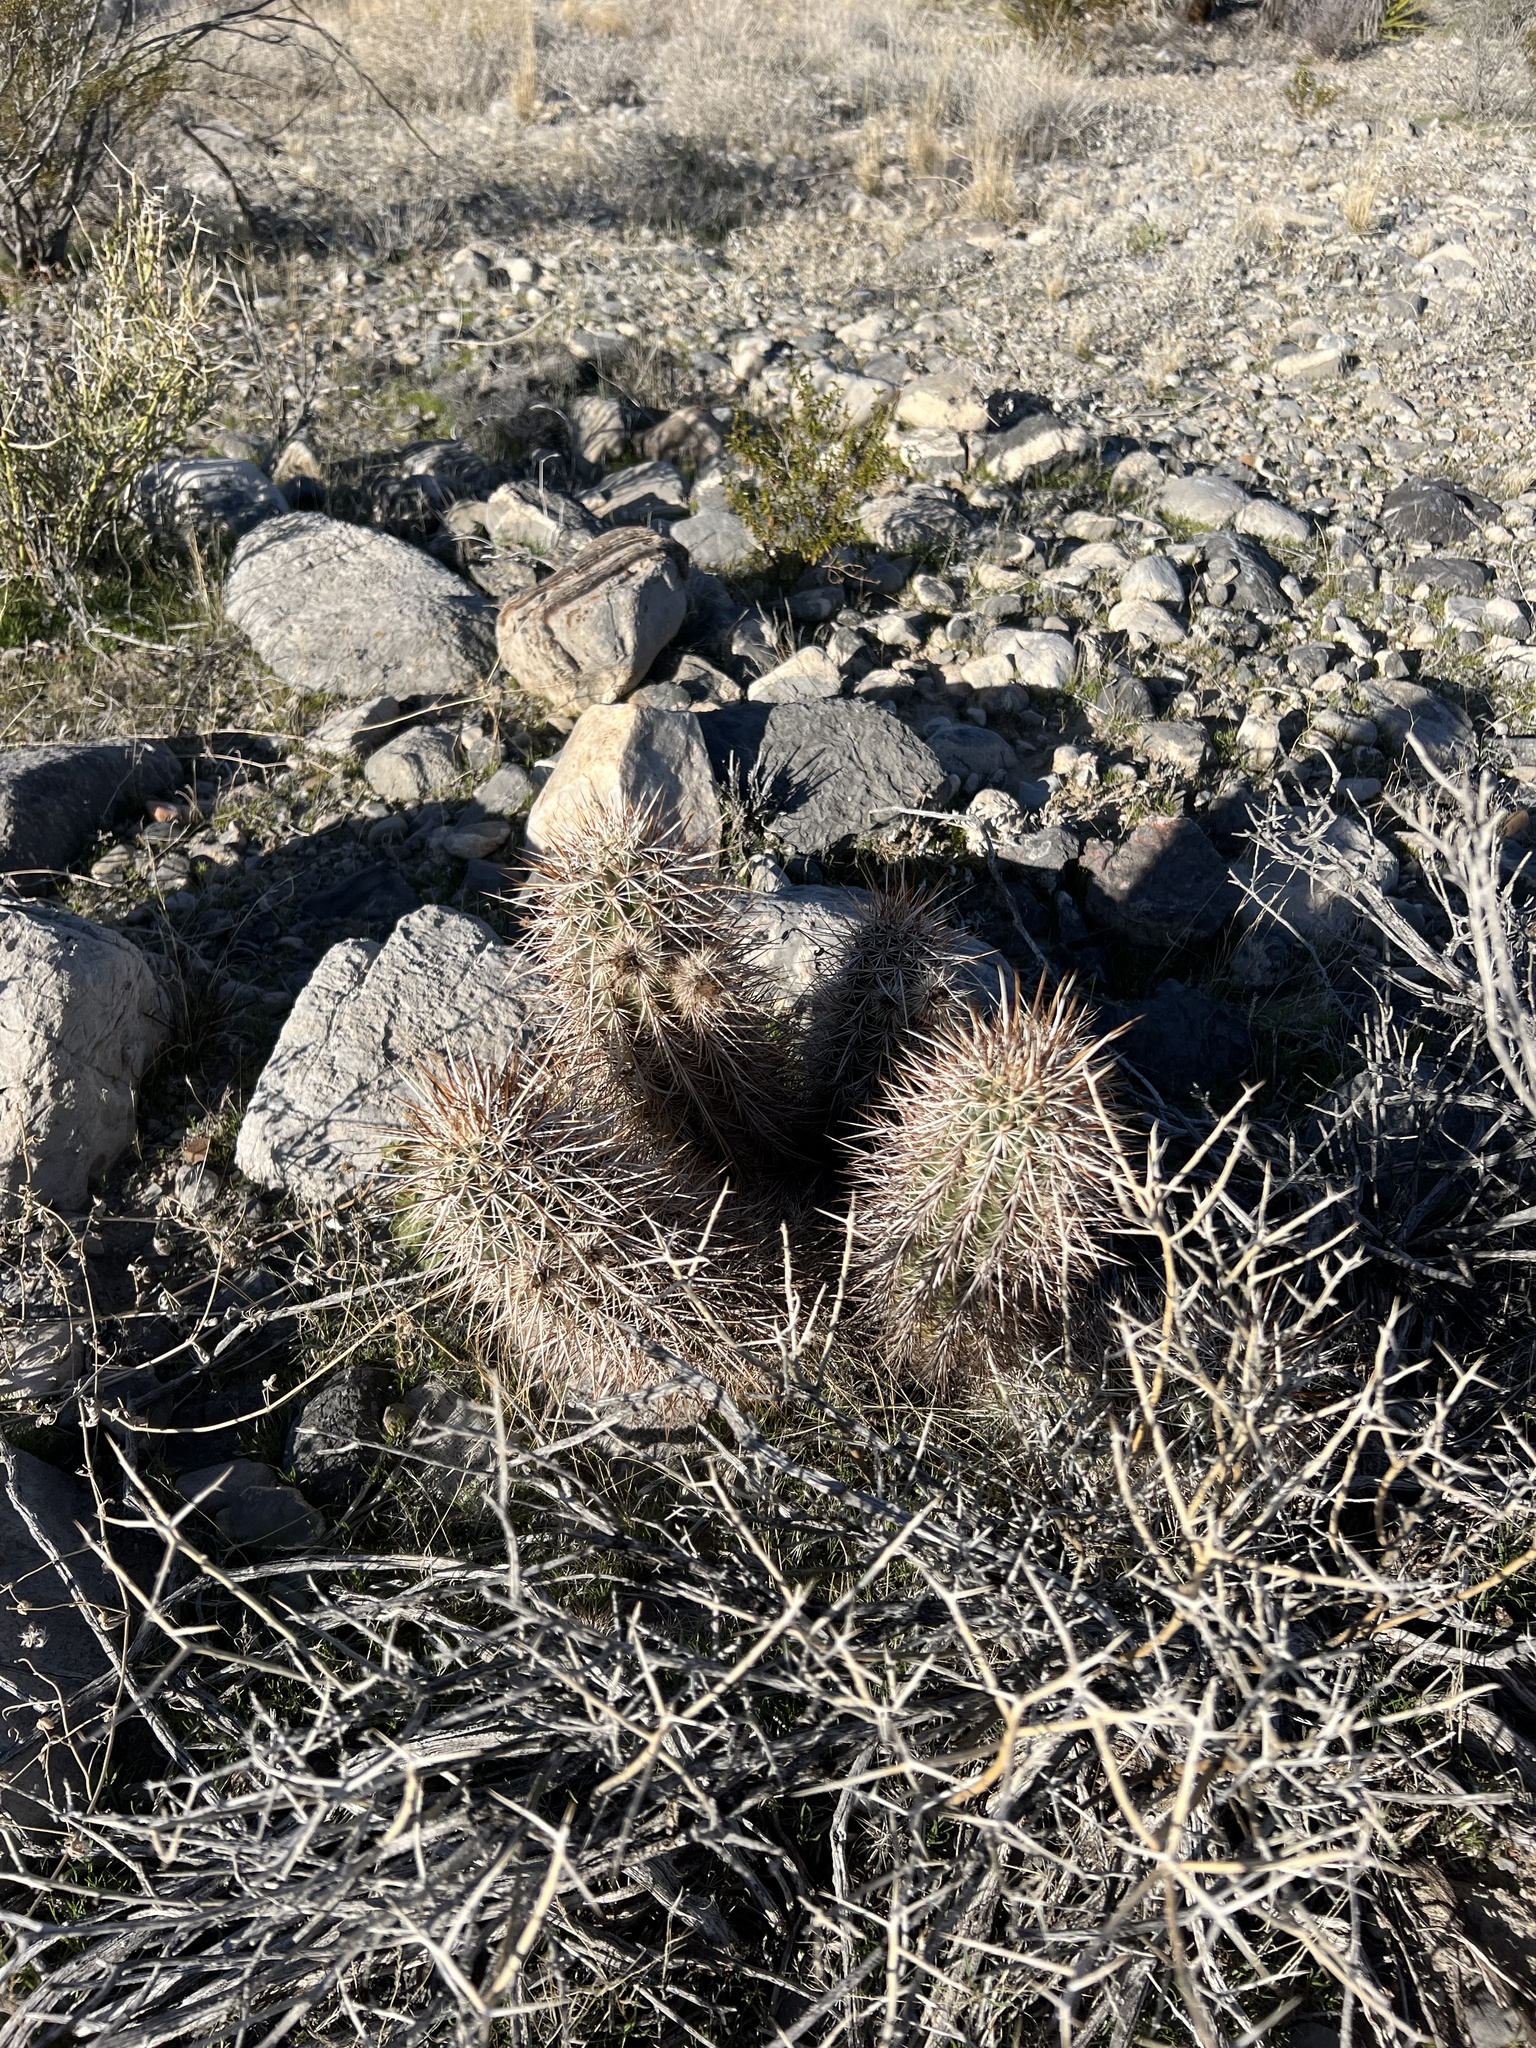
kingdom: Plantae
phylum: Tracheophyta
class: Magnoliopsida
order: Caryophyllales
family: Cactaceae
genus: Echinocereus
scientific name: Echinocereus engelmannii
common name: Engelmann's hedgehog cactus
